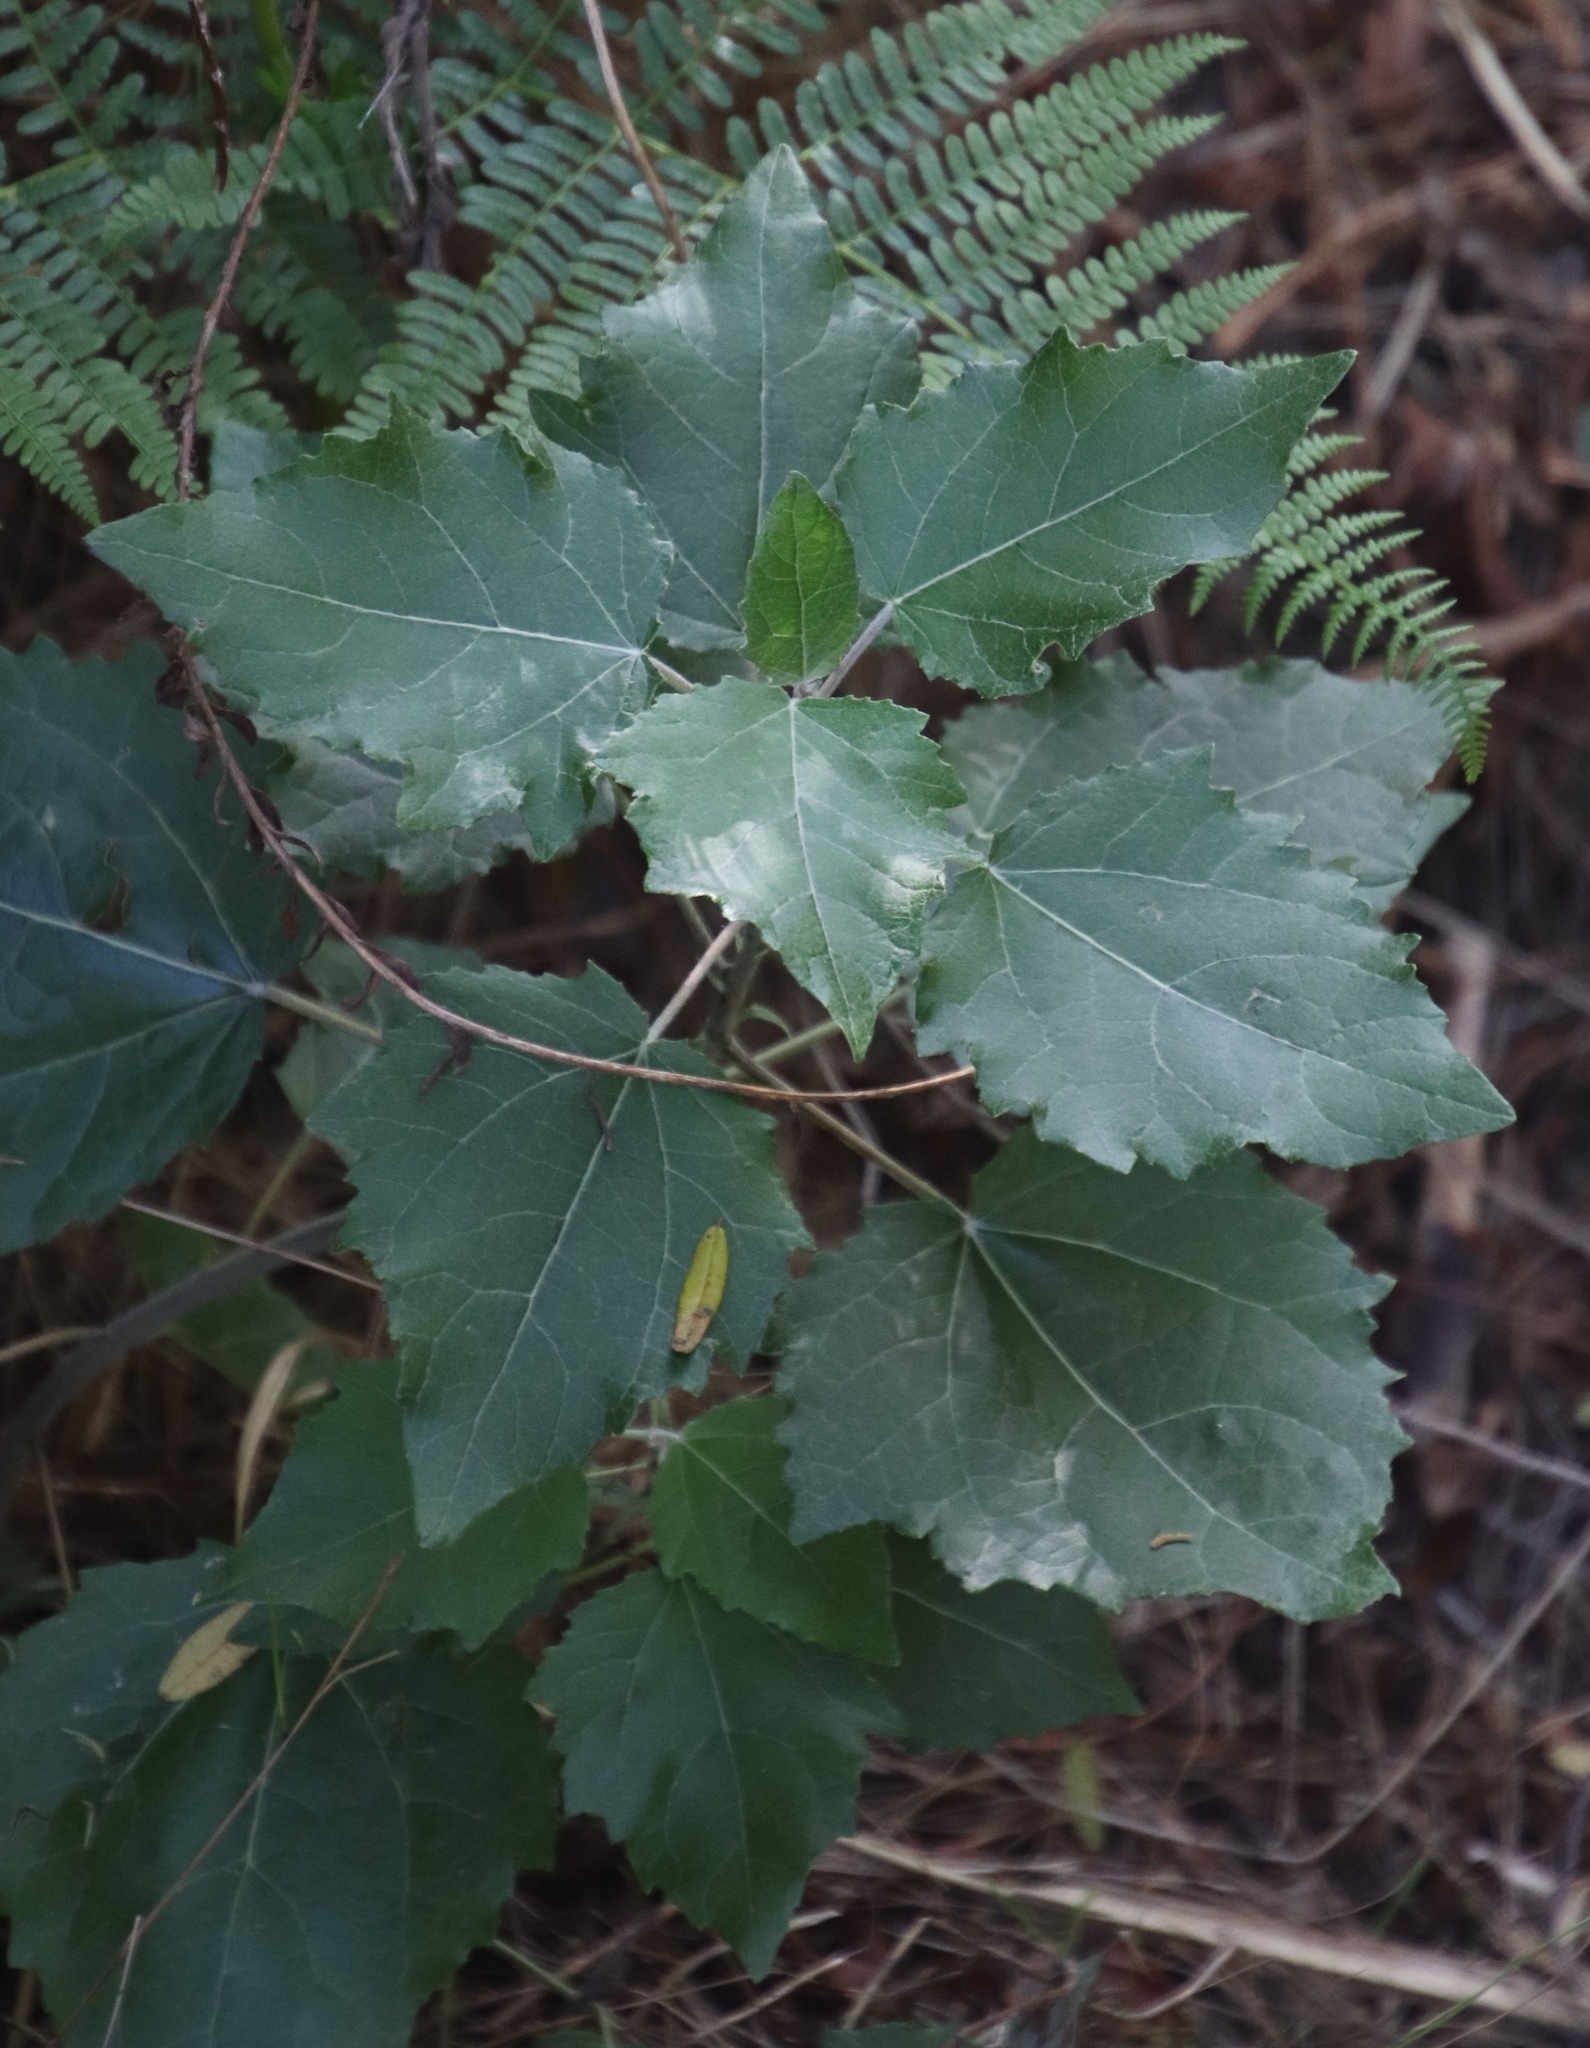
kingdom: Plantae
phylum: Tracheophyta
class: Magnoliopsida
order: Malpighiales
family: Salicaceae
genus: Populus
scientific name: Populus alba
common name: White poplar
